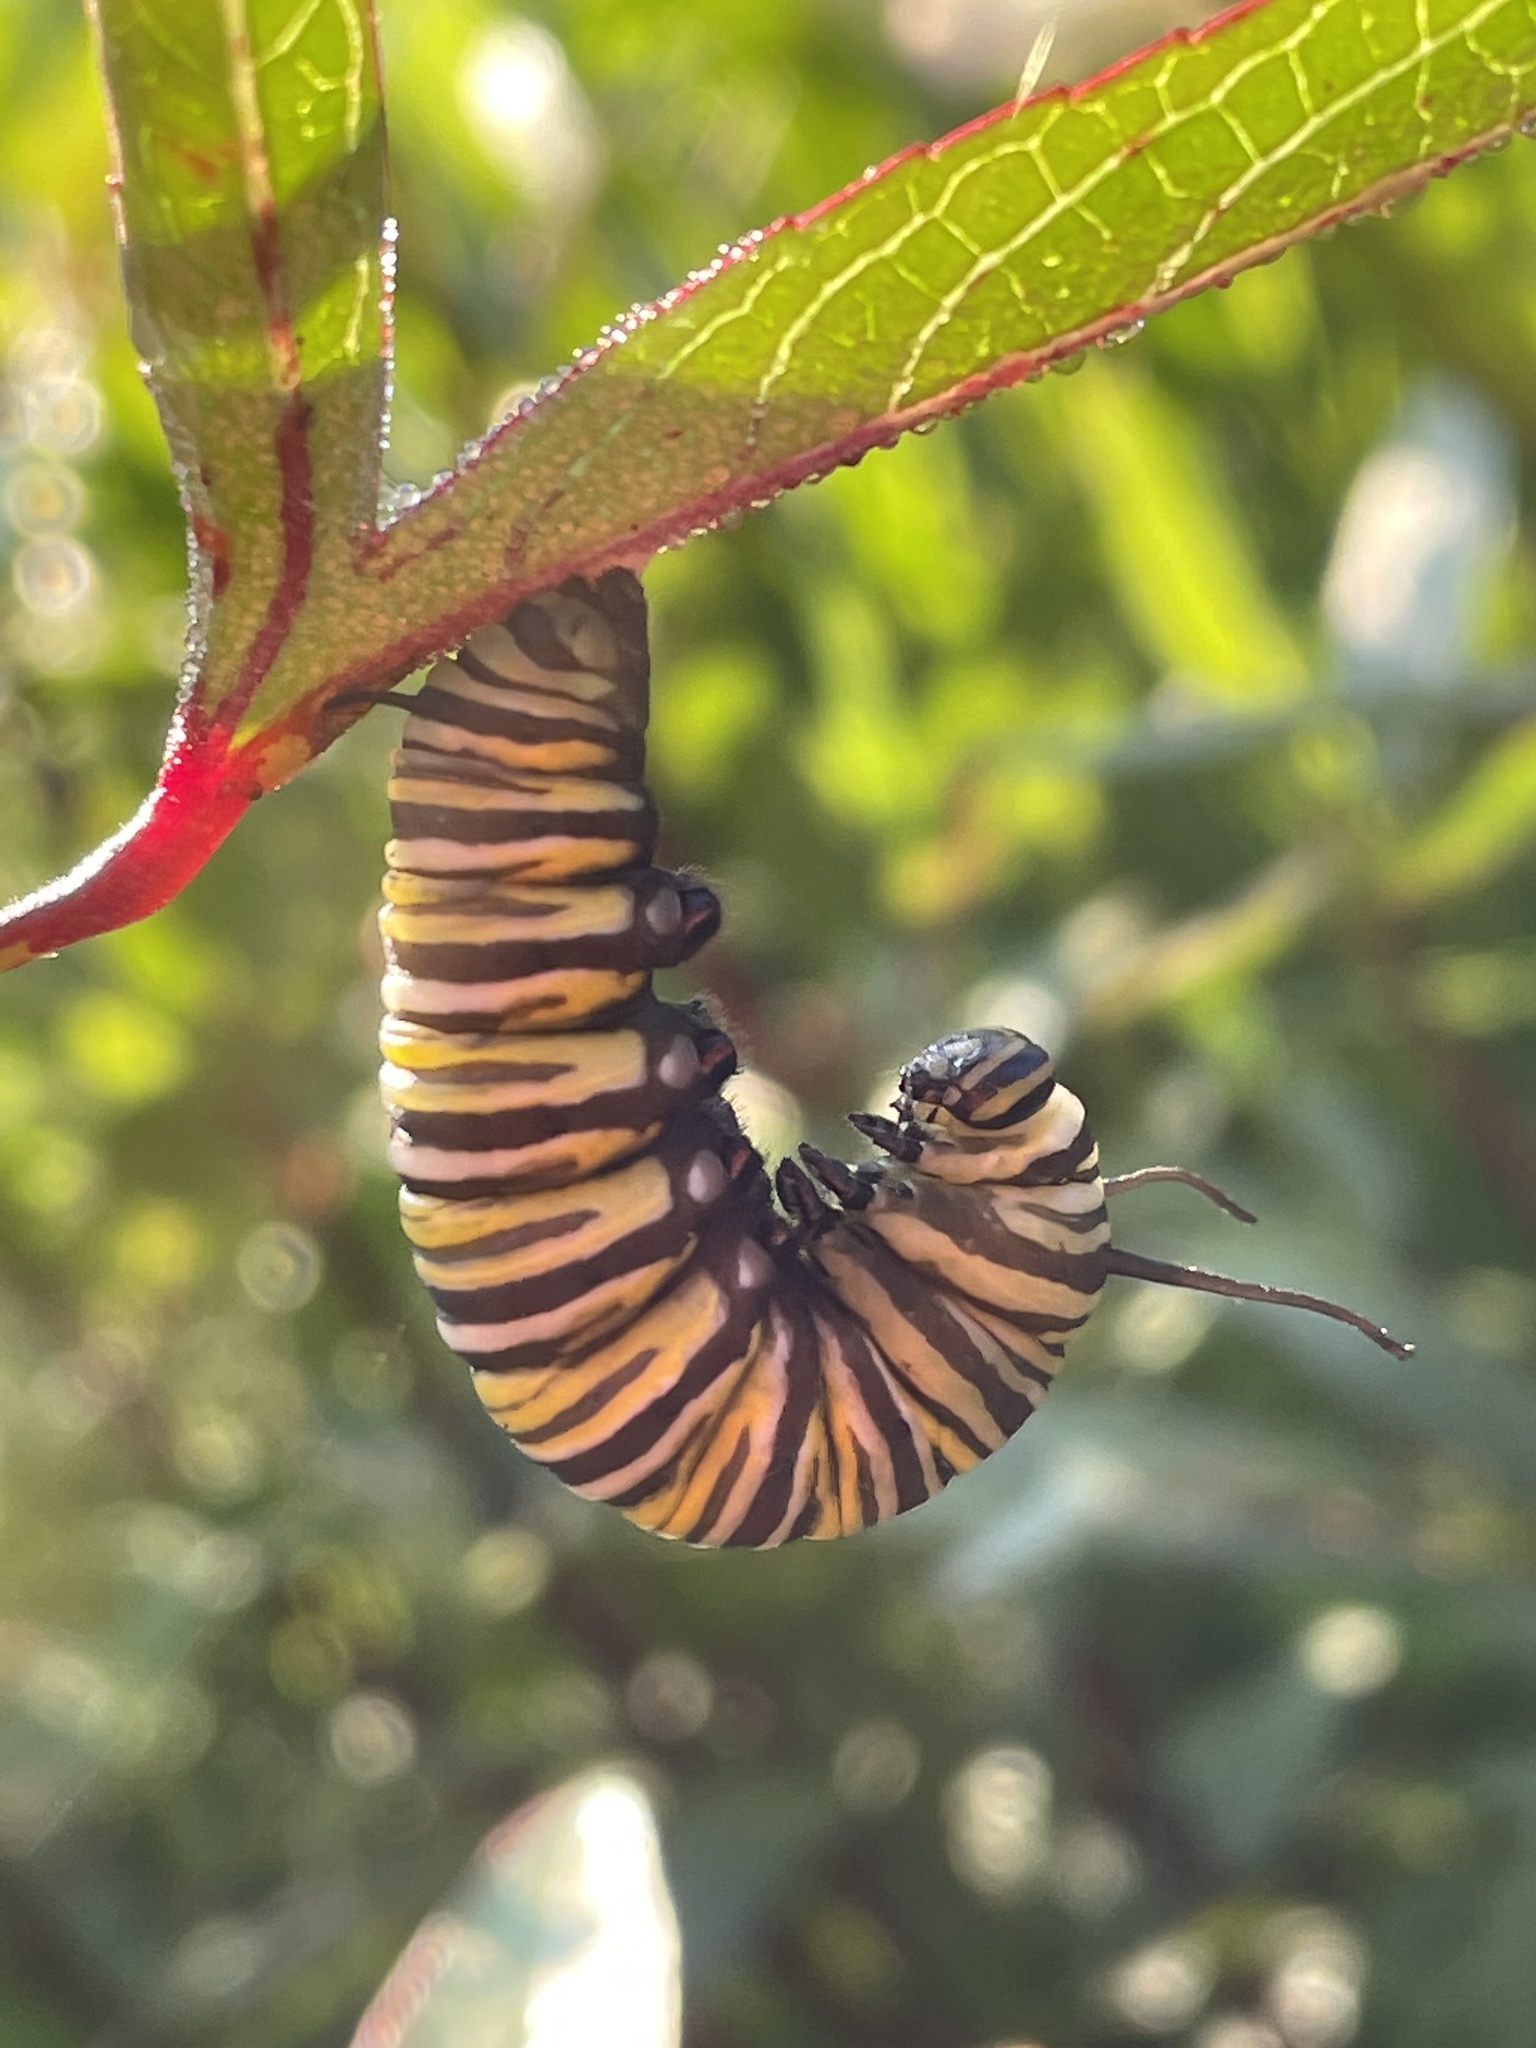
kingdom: Animalia
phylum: Arthropoda
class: Insecta
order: Lepidoptera
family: Nymphalidae
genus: Danaus
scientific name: Danaus plexippus
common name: Monarch
